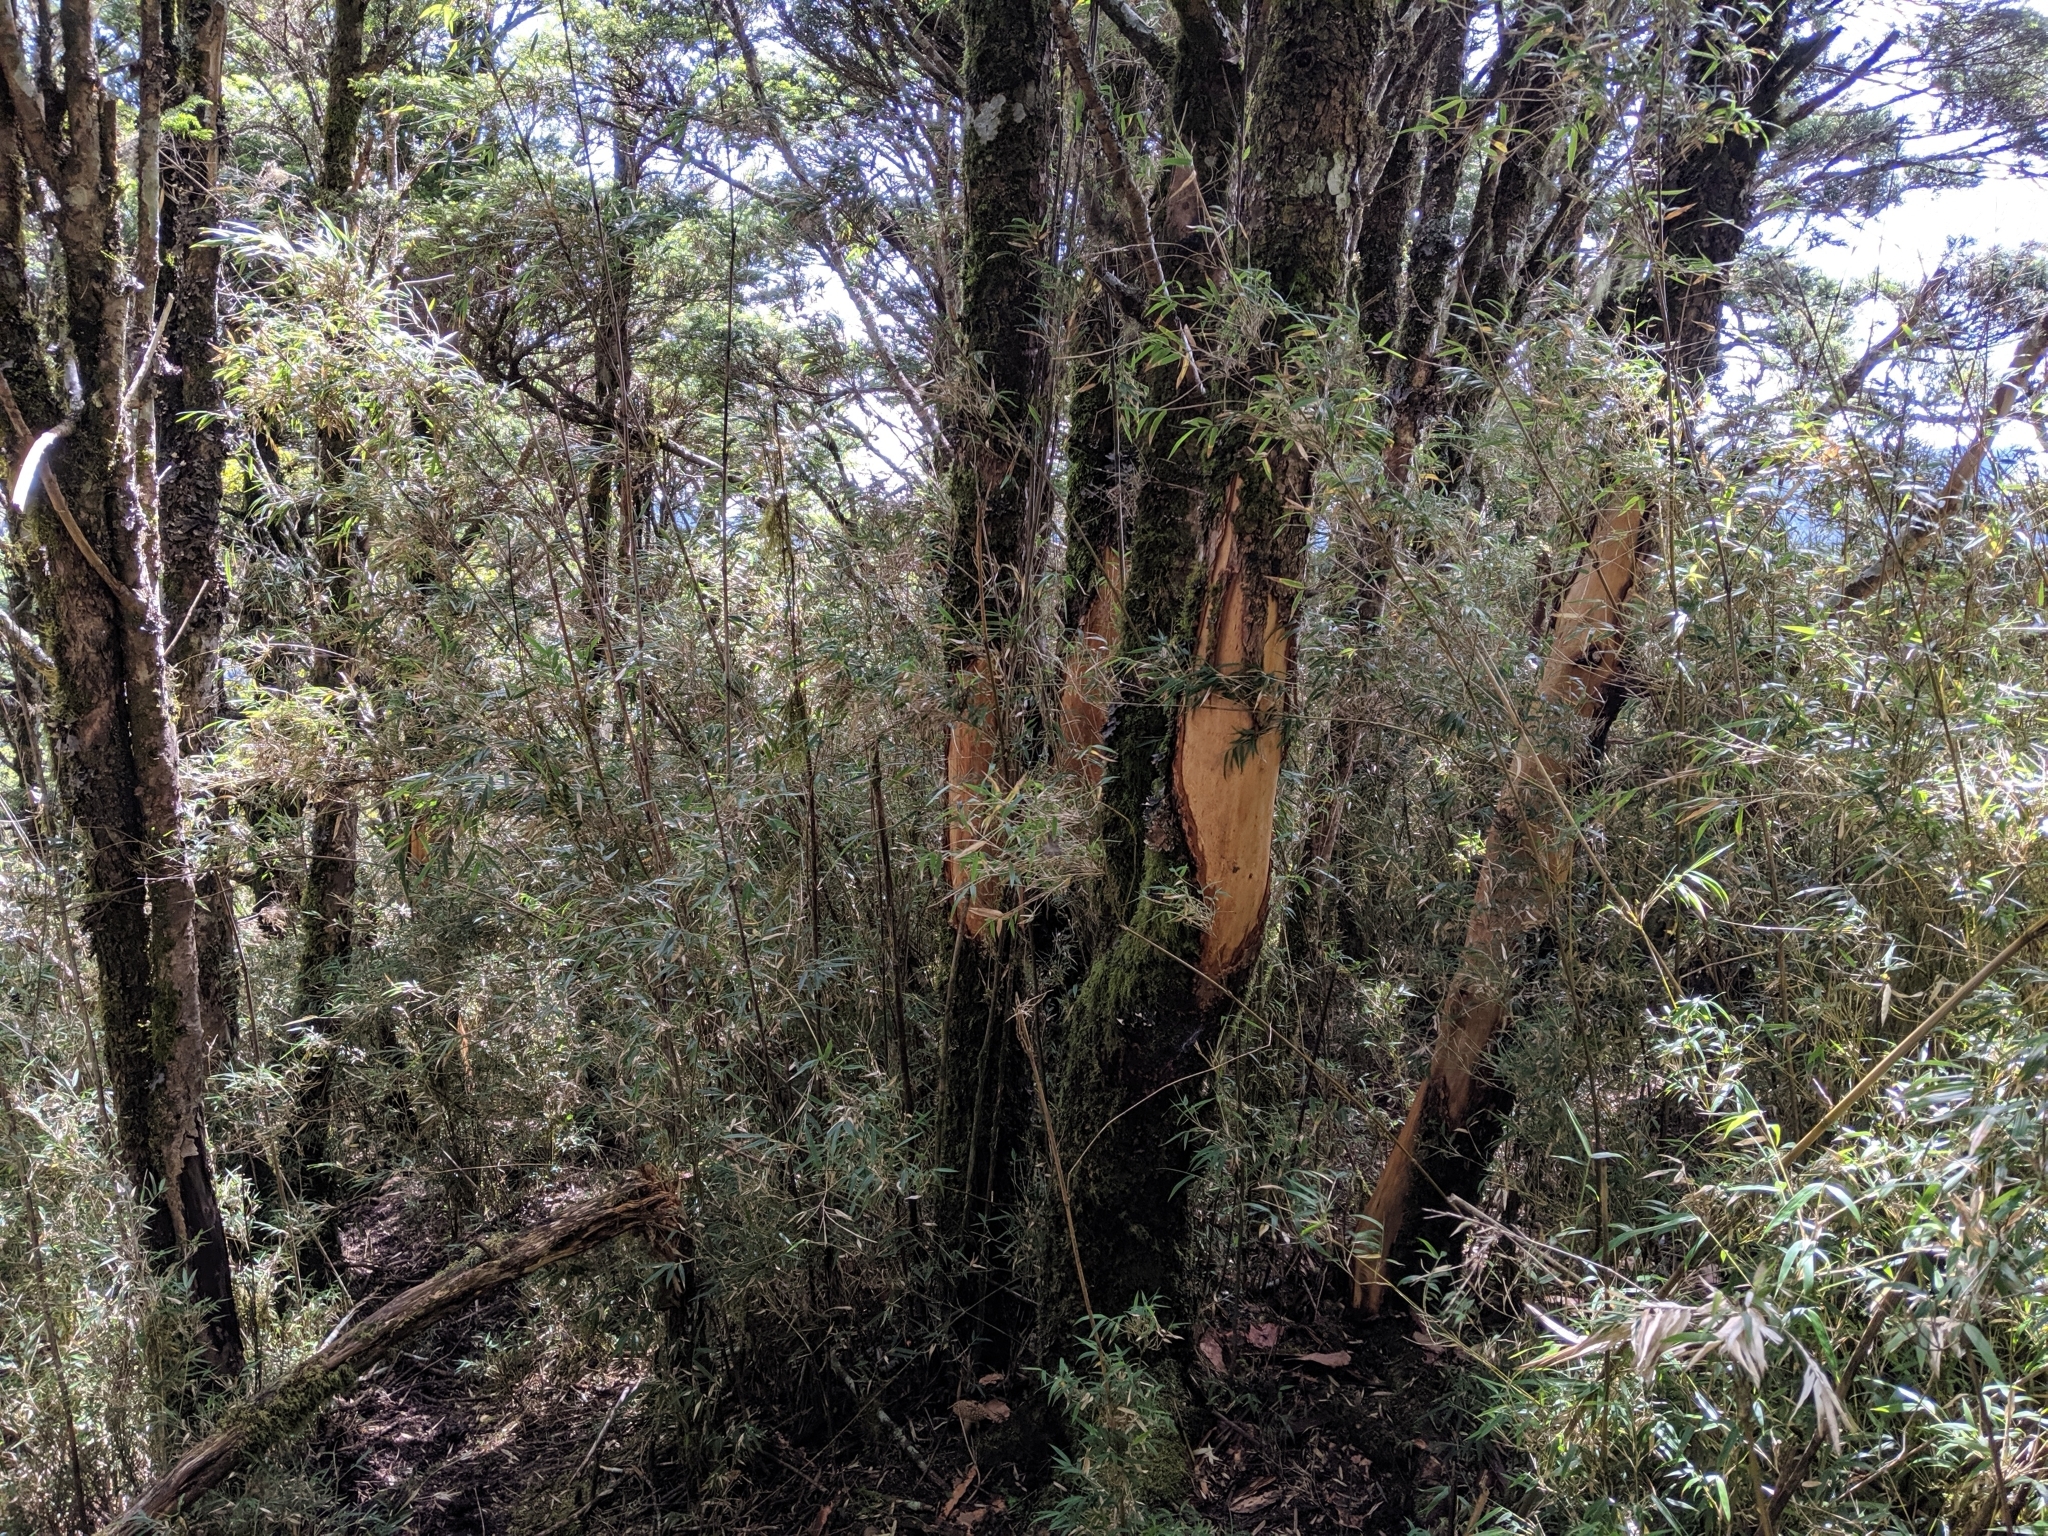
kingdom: Animalia
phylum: Chordata
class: Mammalia
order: Artiodactyla
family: Cervidae
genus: Rusa
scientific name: Rusa unicolor
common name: Sambar
